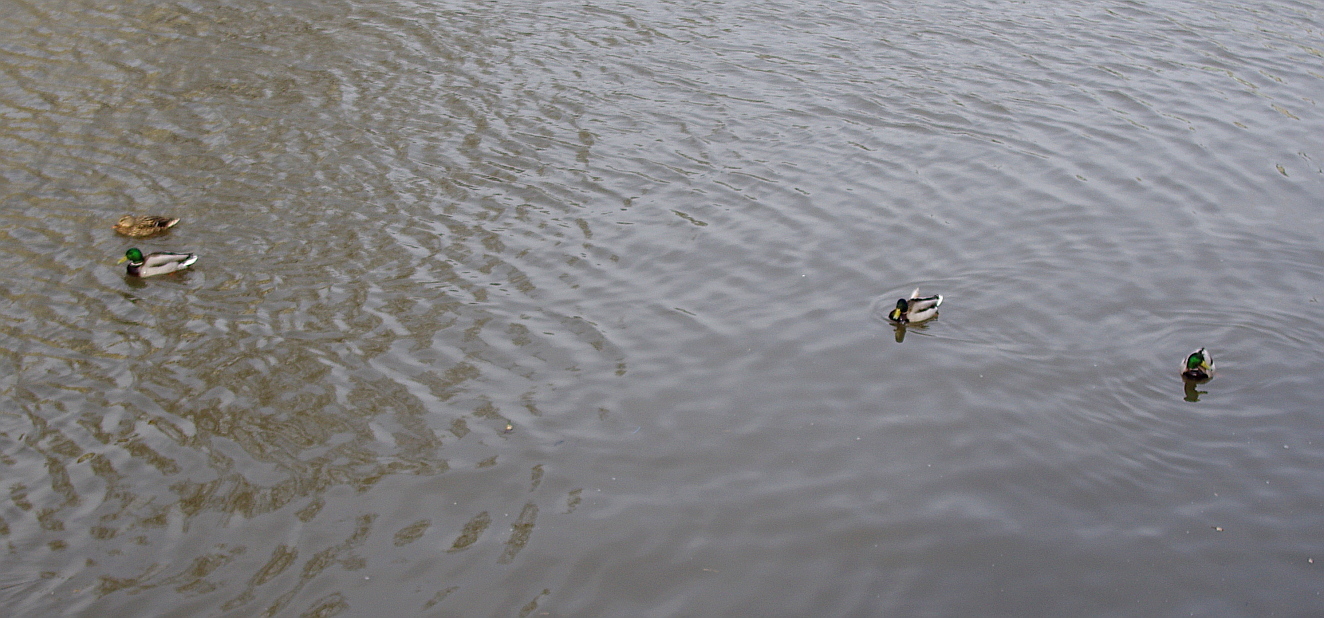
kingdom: Animalia
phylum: Chordata
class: Aves
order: Anseriformes
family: Anatidae
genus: Anas
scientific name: Anas platyrhynchos
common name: Mallard
